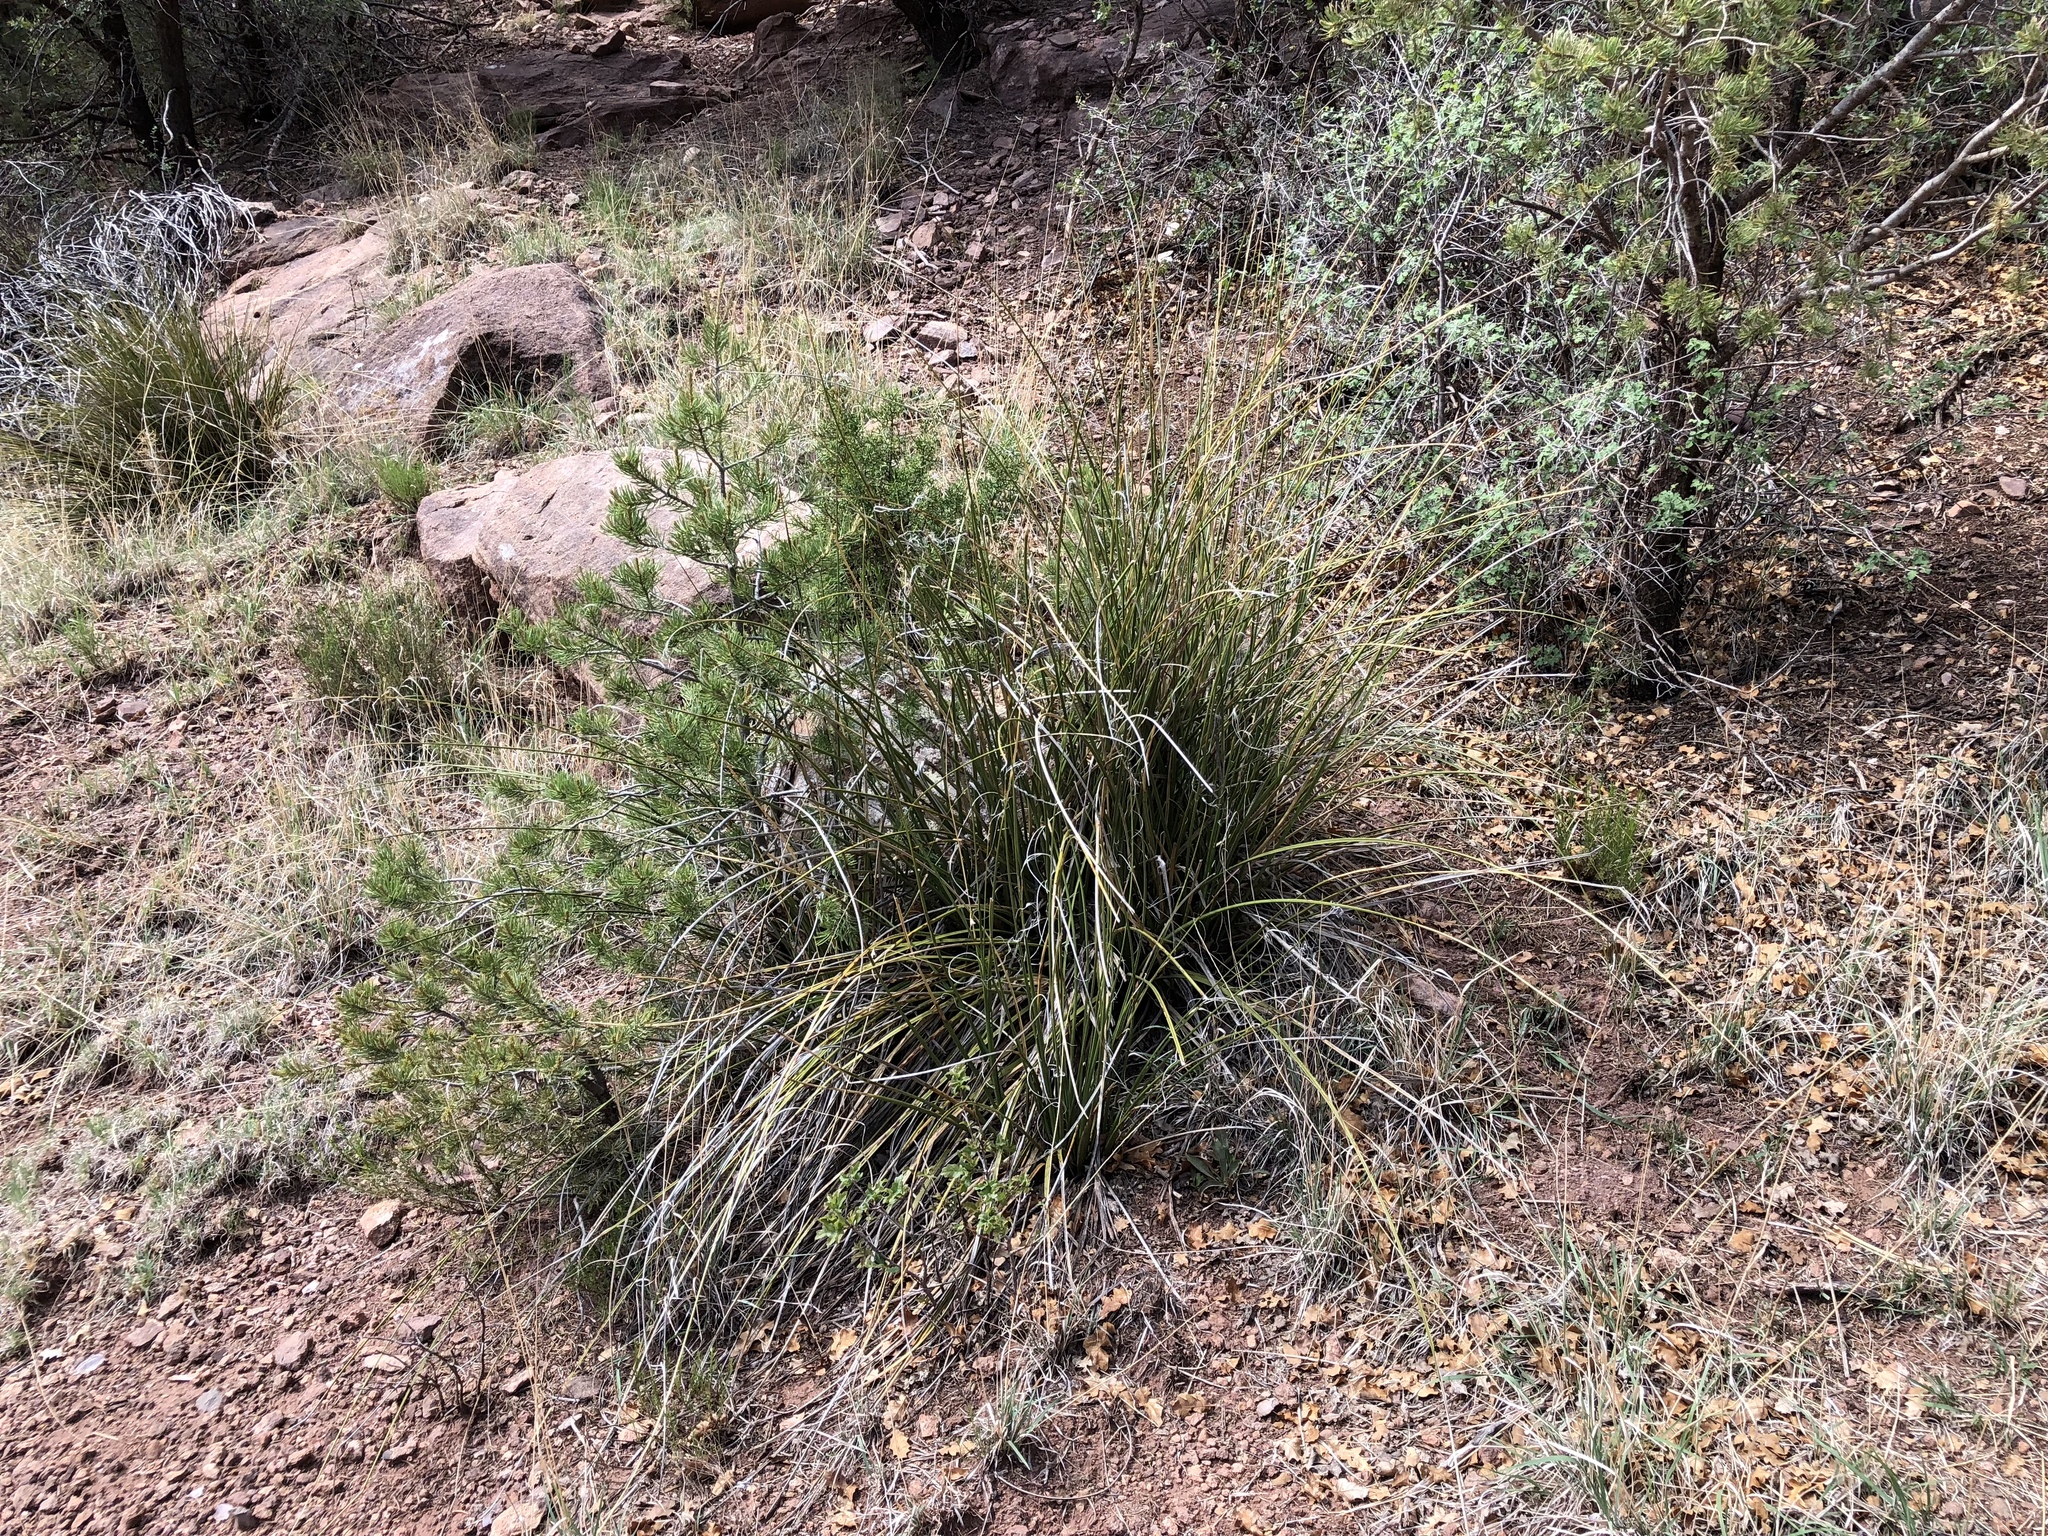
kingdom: Plantae
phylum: Tracheophyta
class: Liliopsida
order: Asparagales
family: Asparagaceae
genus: Nolina
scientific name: Nolina microcarpa
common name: Bear-grass
